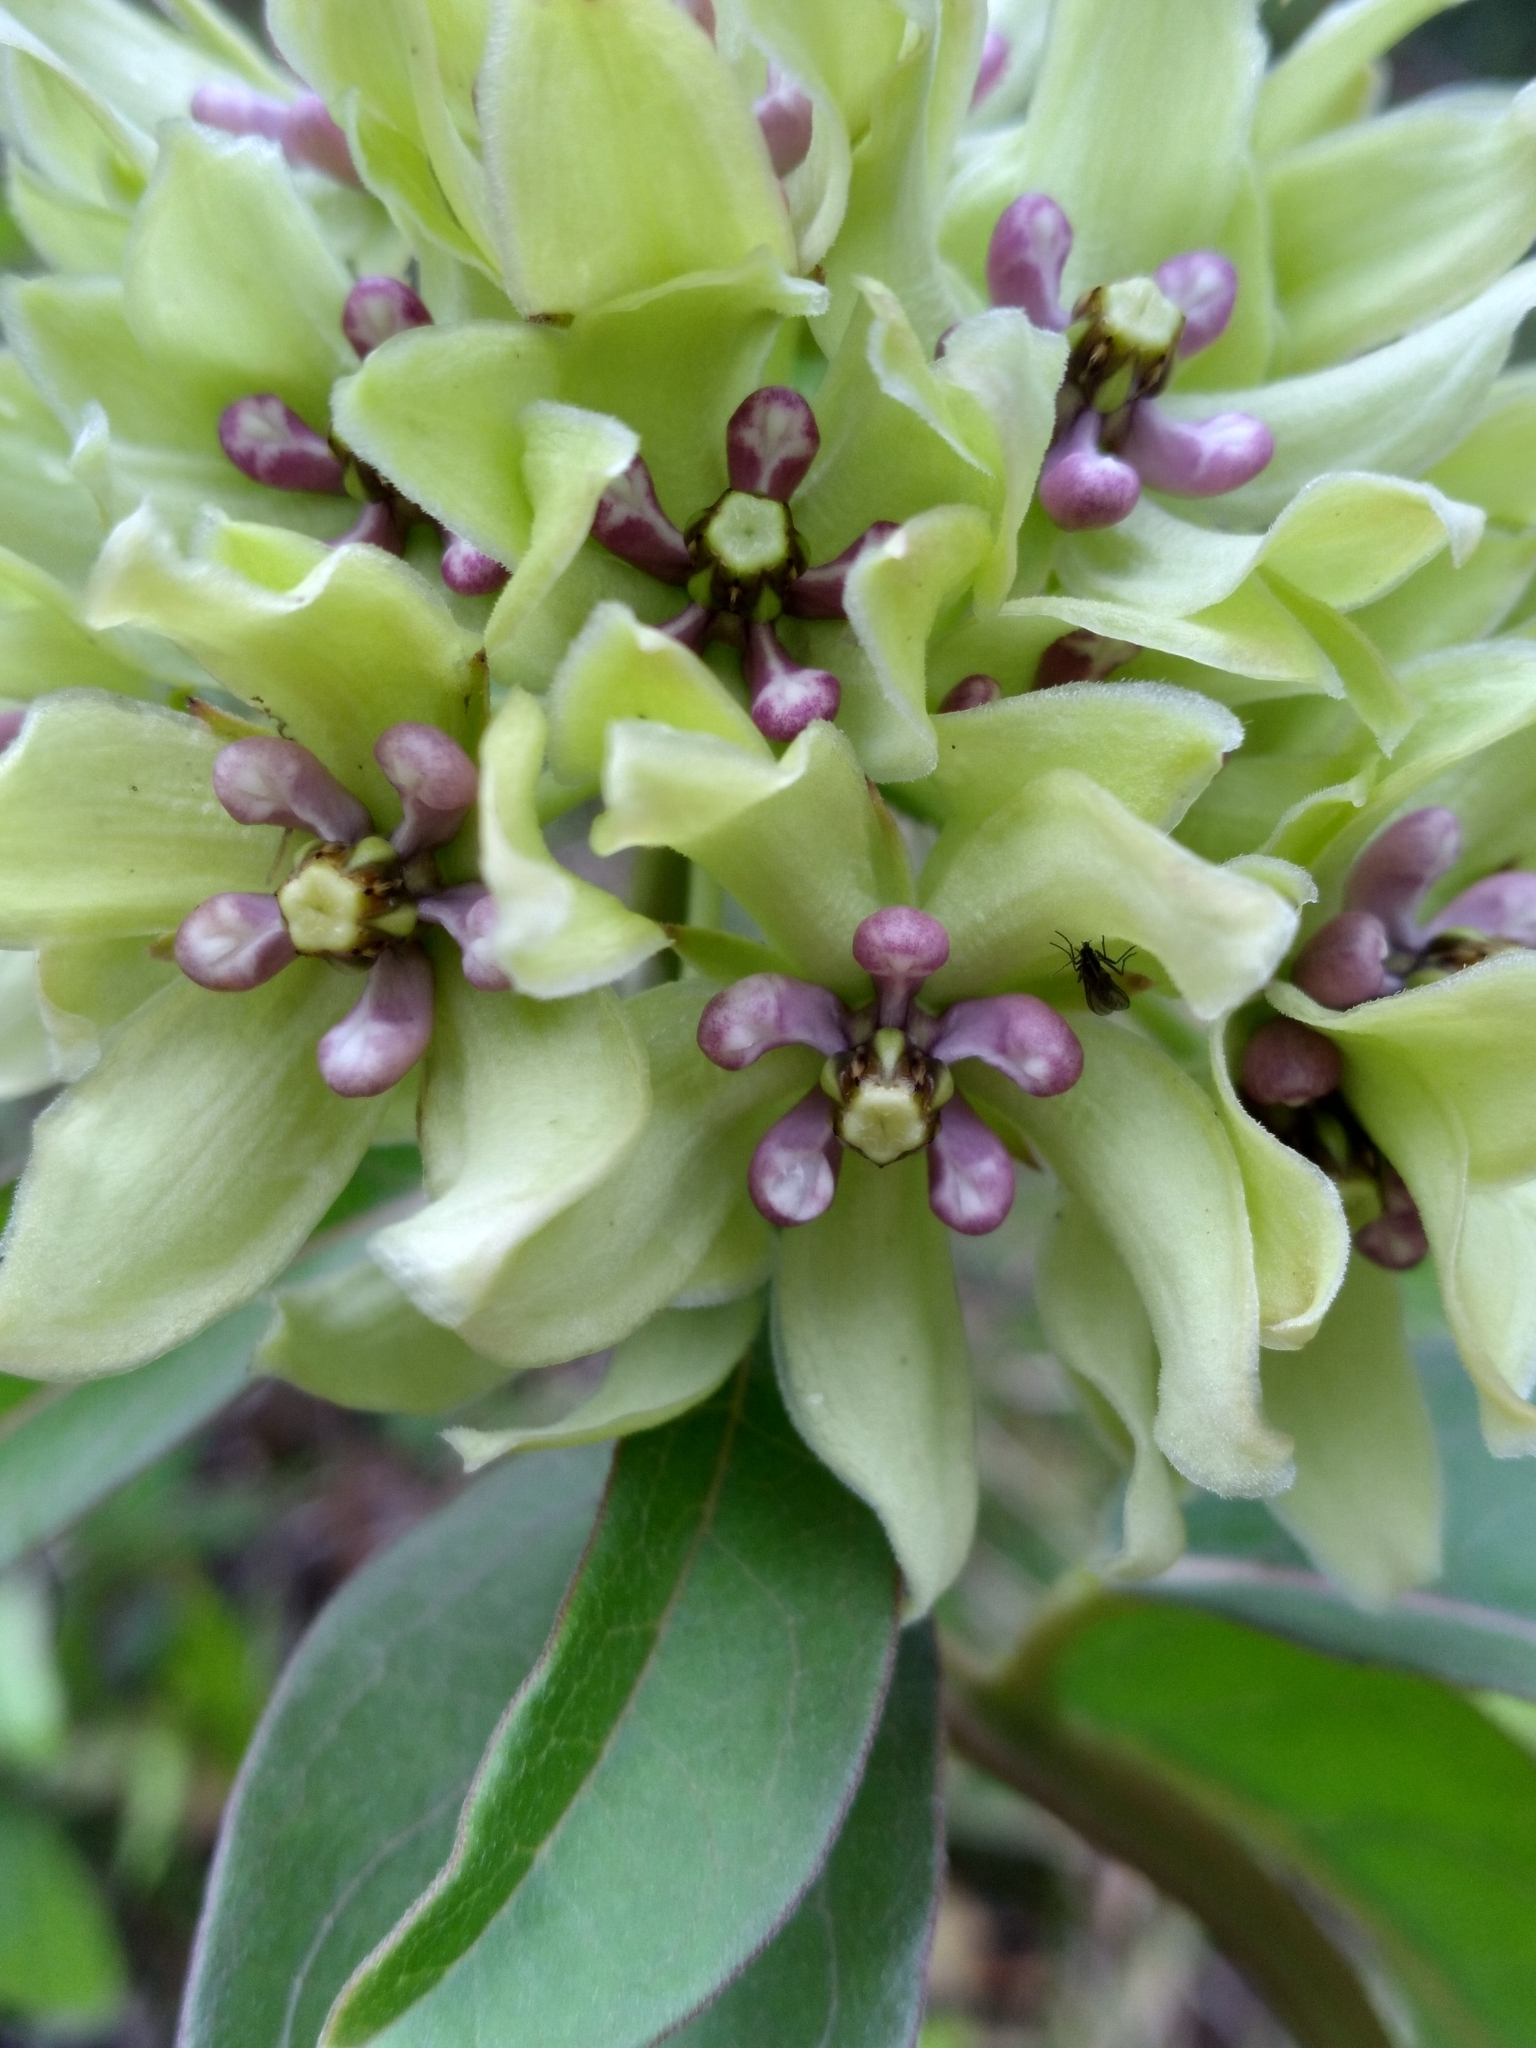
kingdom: Plantae
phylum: Tracheophyta
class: Magnoliopsida
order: Gentianales
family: Apocynaceae
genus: Asclepias
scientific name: Asclepias viridis
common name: Antelope-horns
